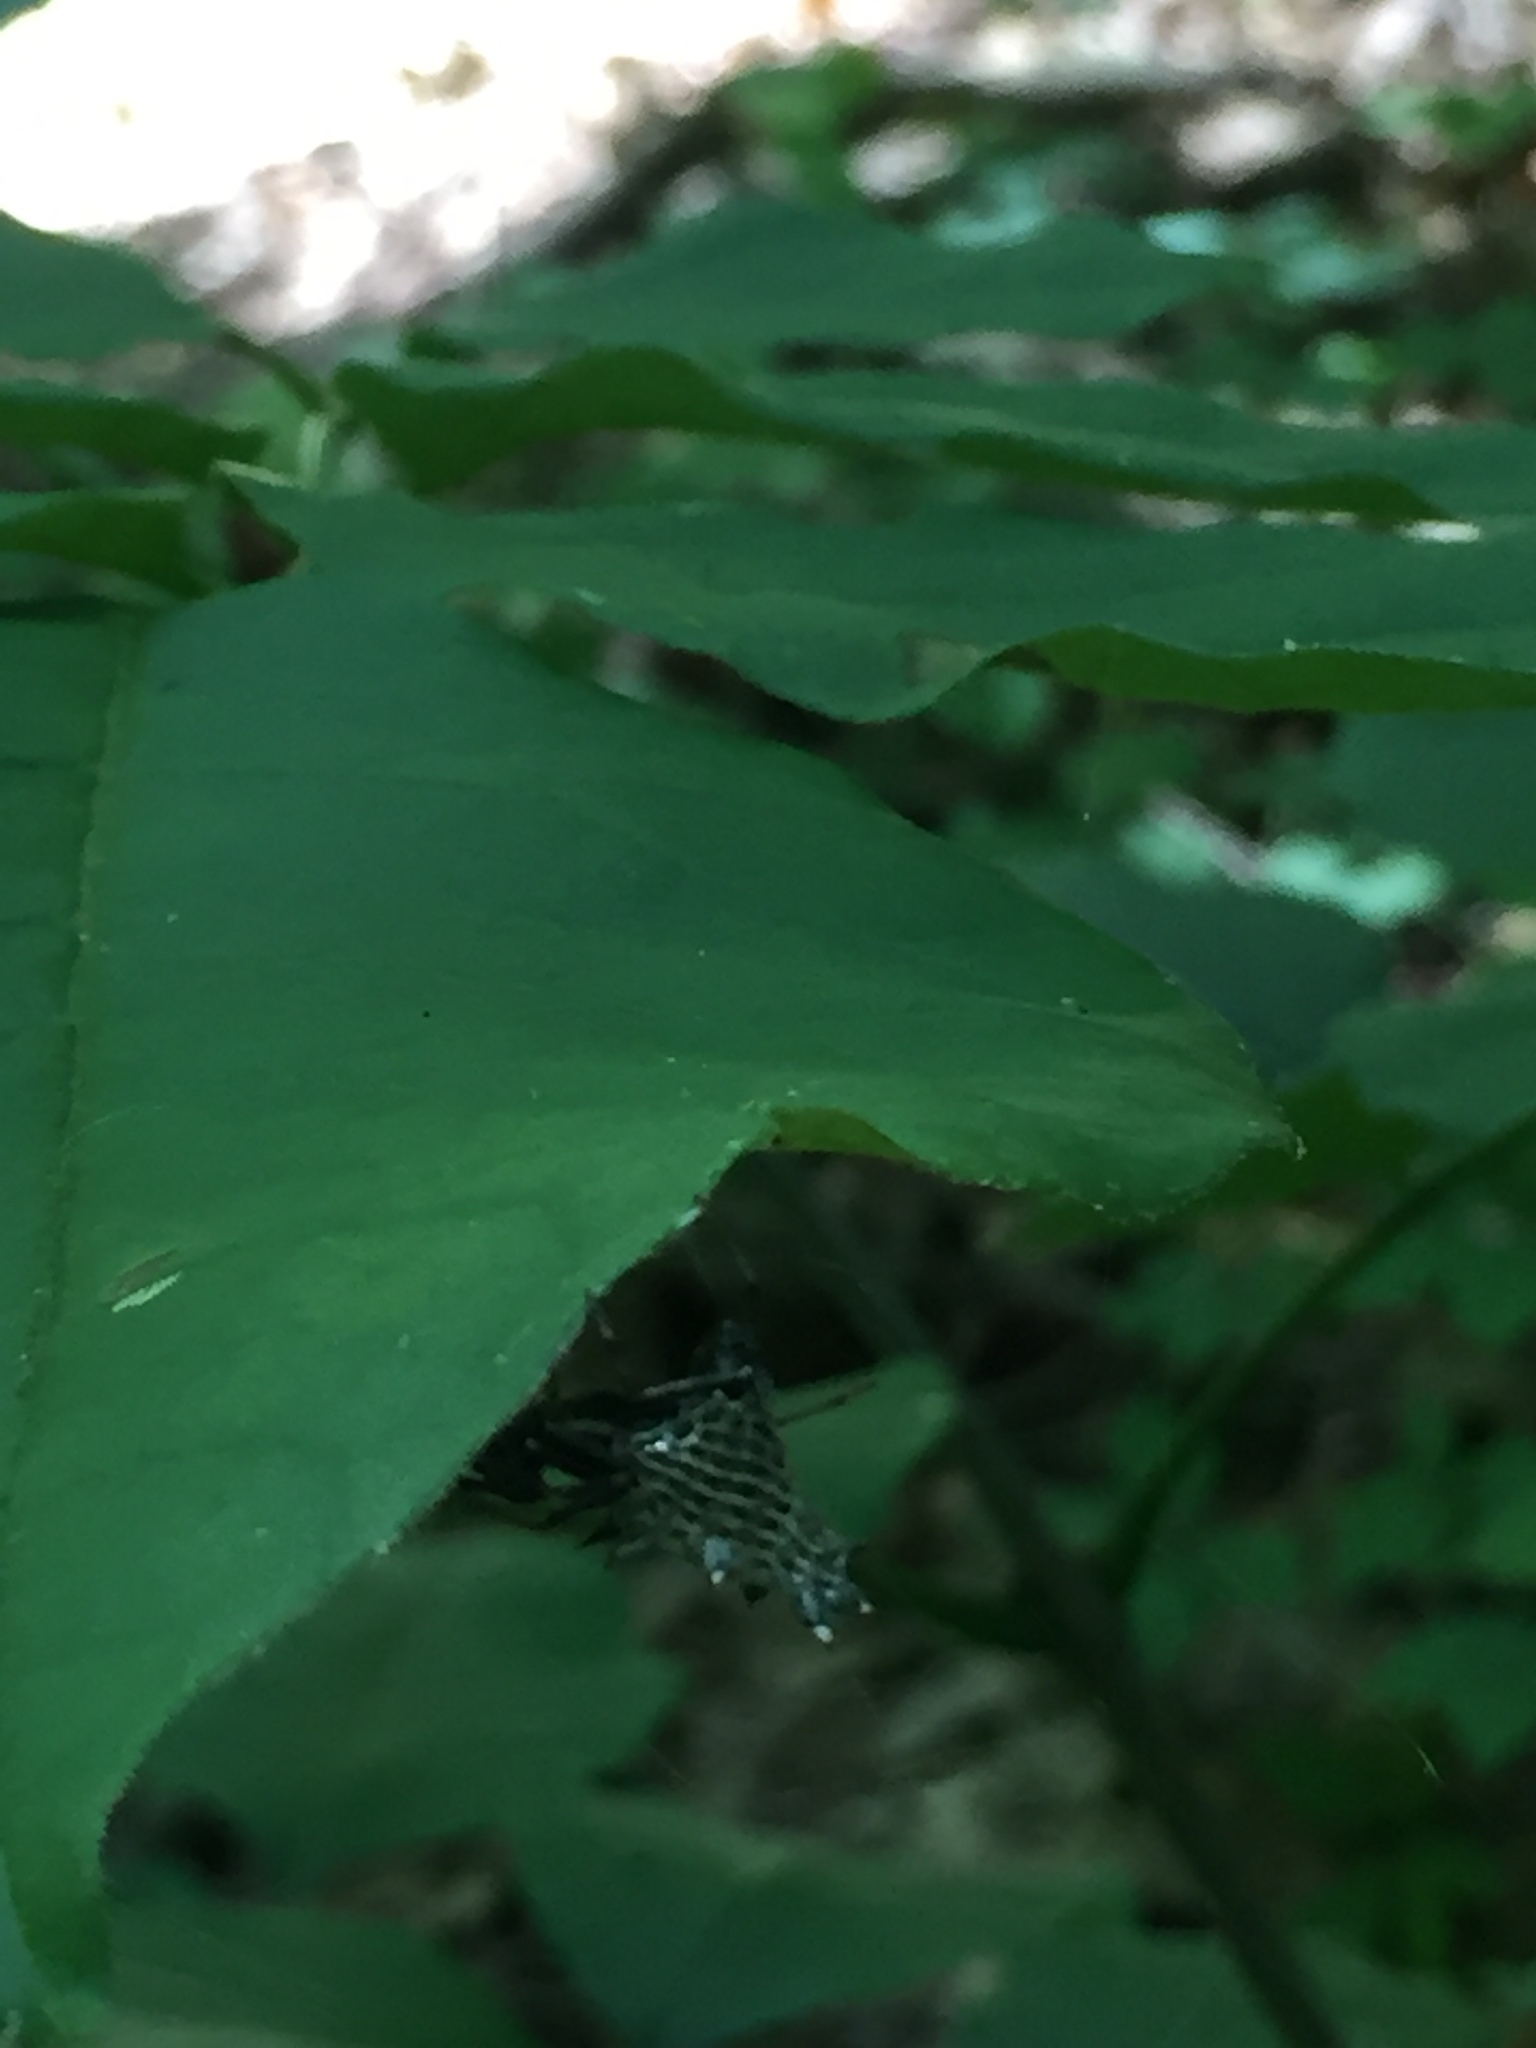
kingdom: Animalia
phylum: Arthropoda
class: Arachnida
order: Araneae
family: Araneidae
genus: Micrathena
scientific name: Micrathena gracilis
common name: Orb weavers
